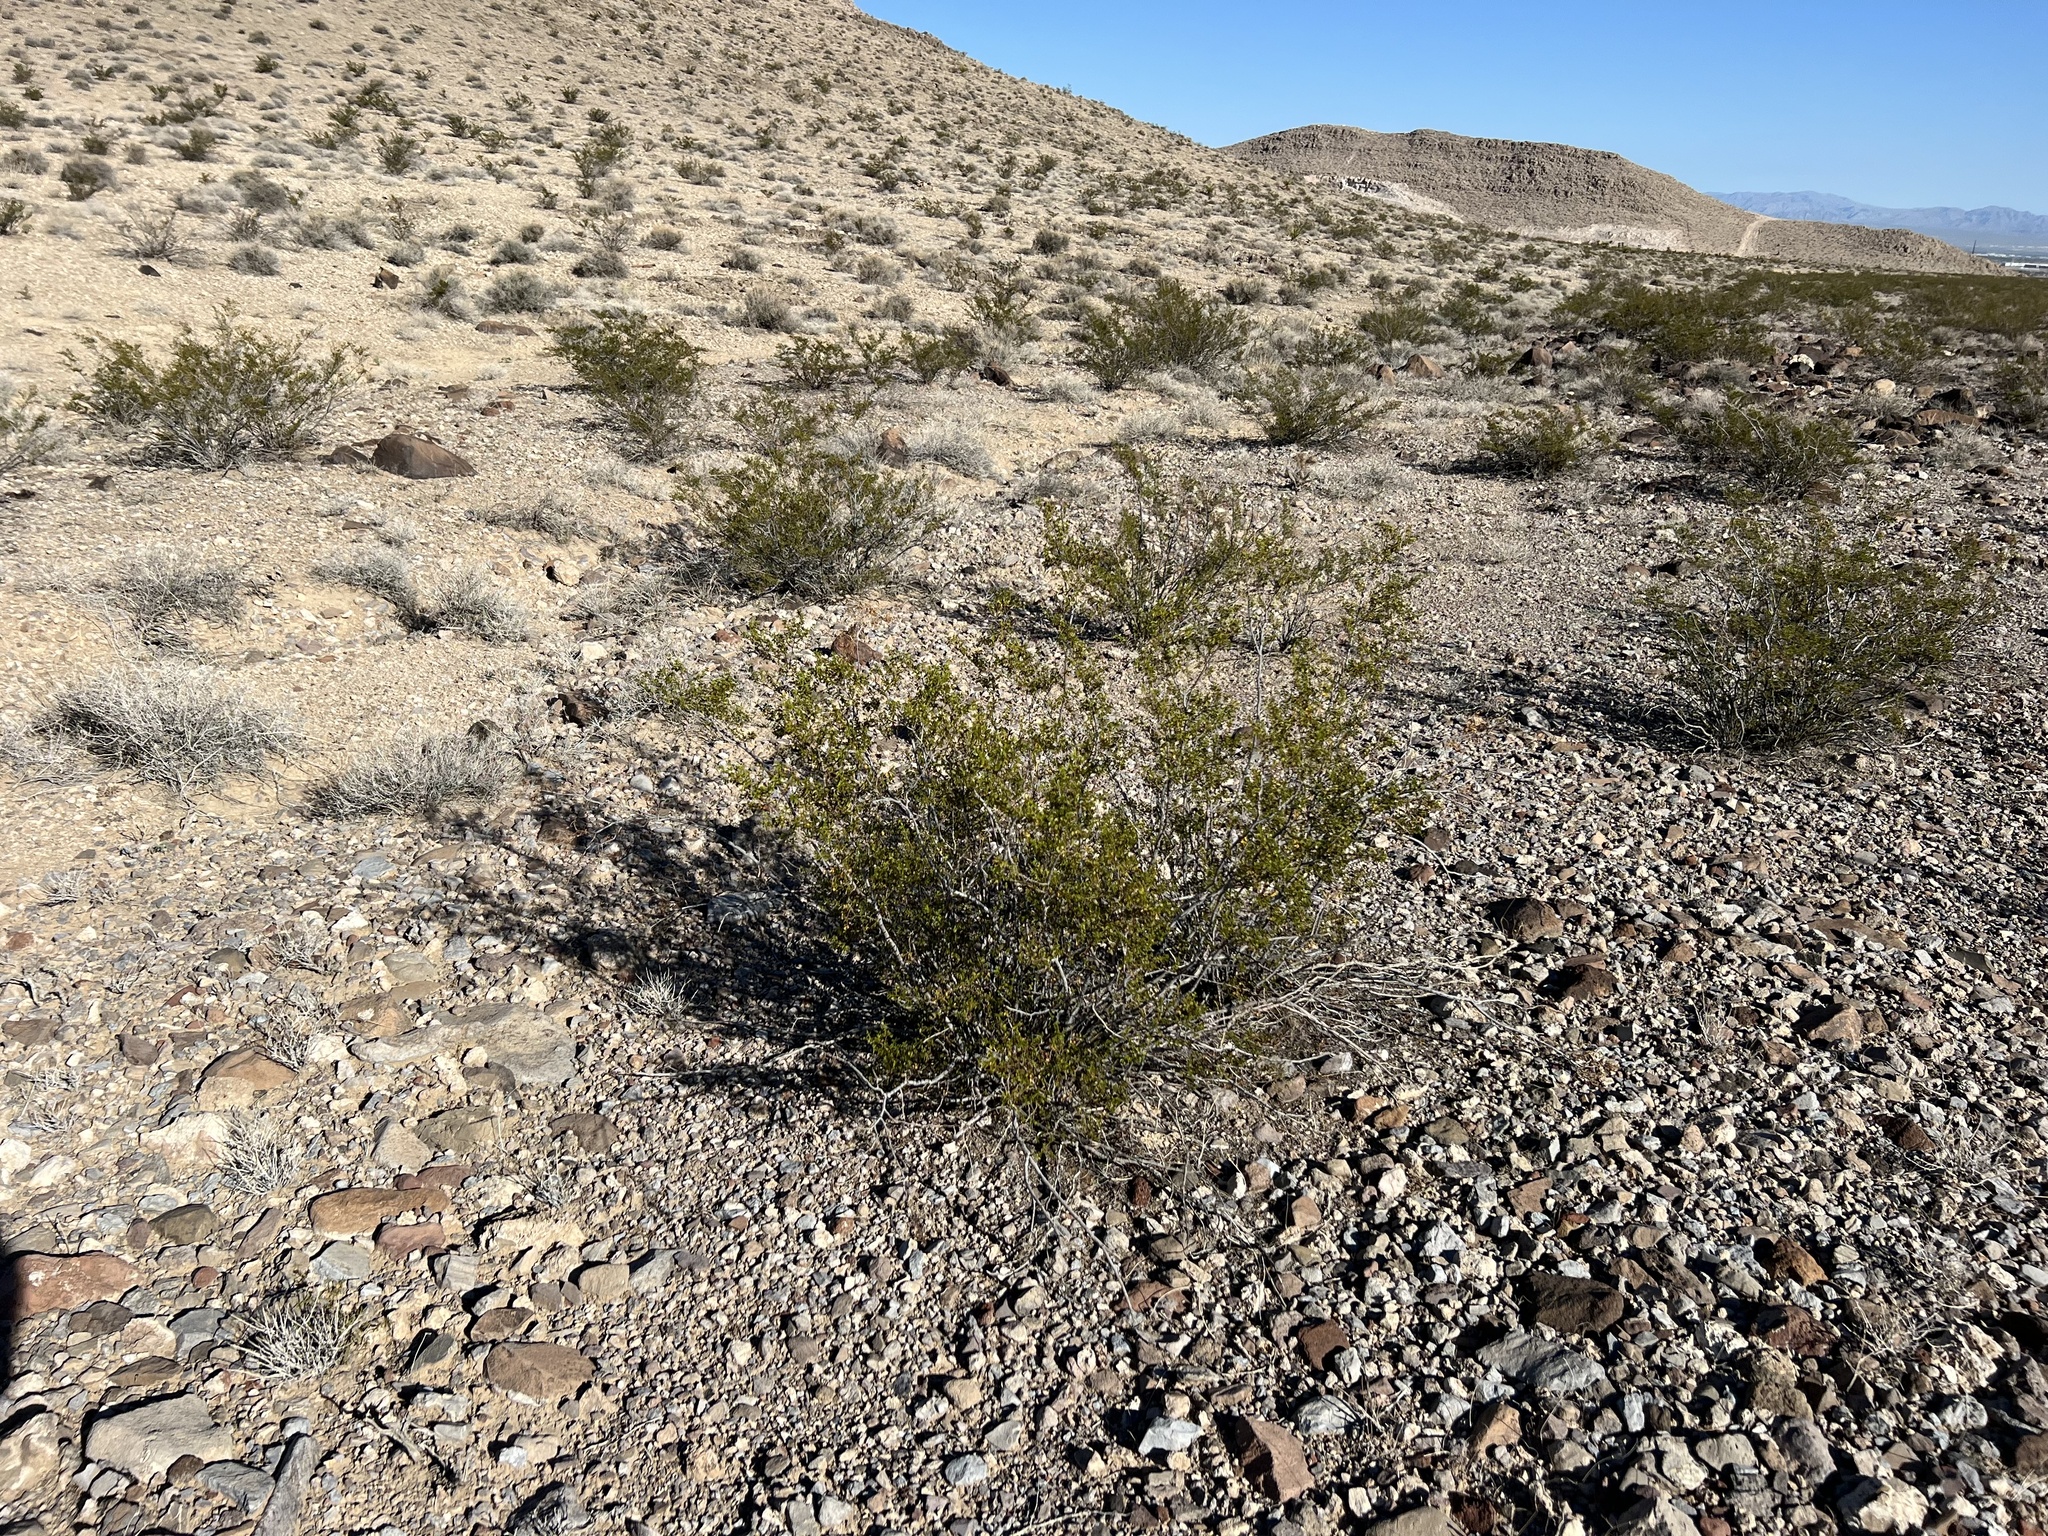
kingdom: Plantae
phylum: Tracheophyta
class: Magnoliopsida
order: Zygophyllales
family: Zygophyllaceae
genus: Larrea
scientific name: Larrea tridentata
